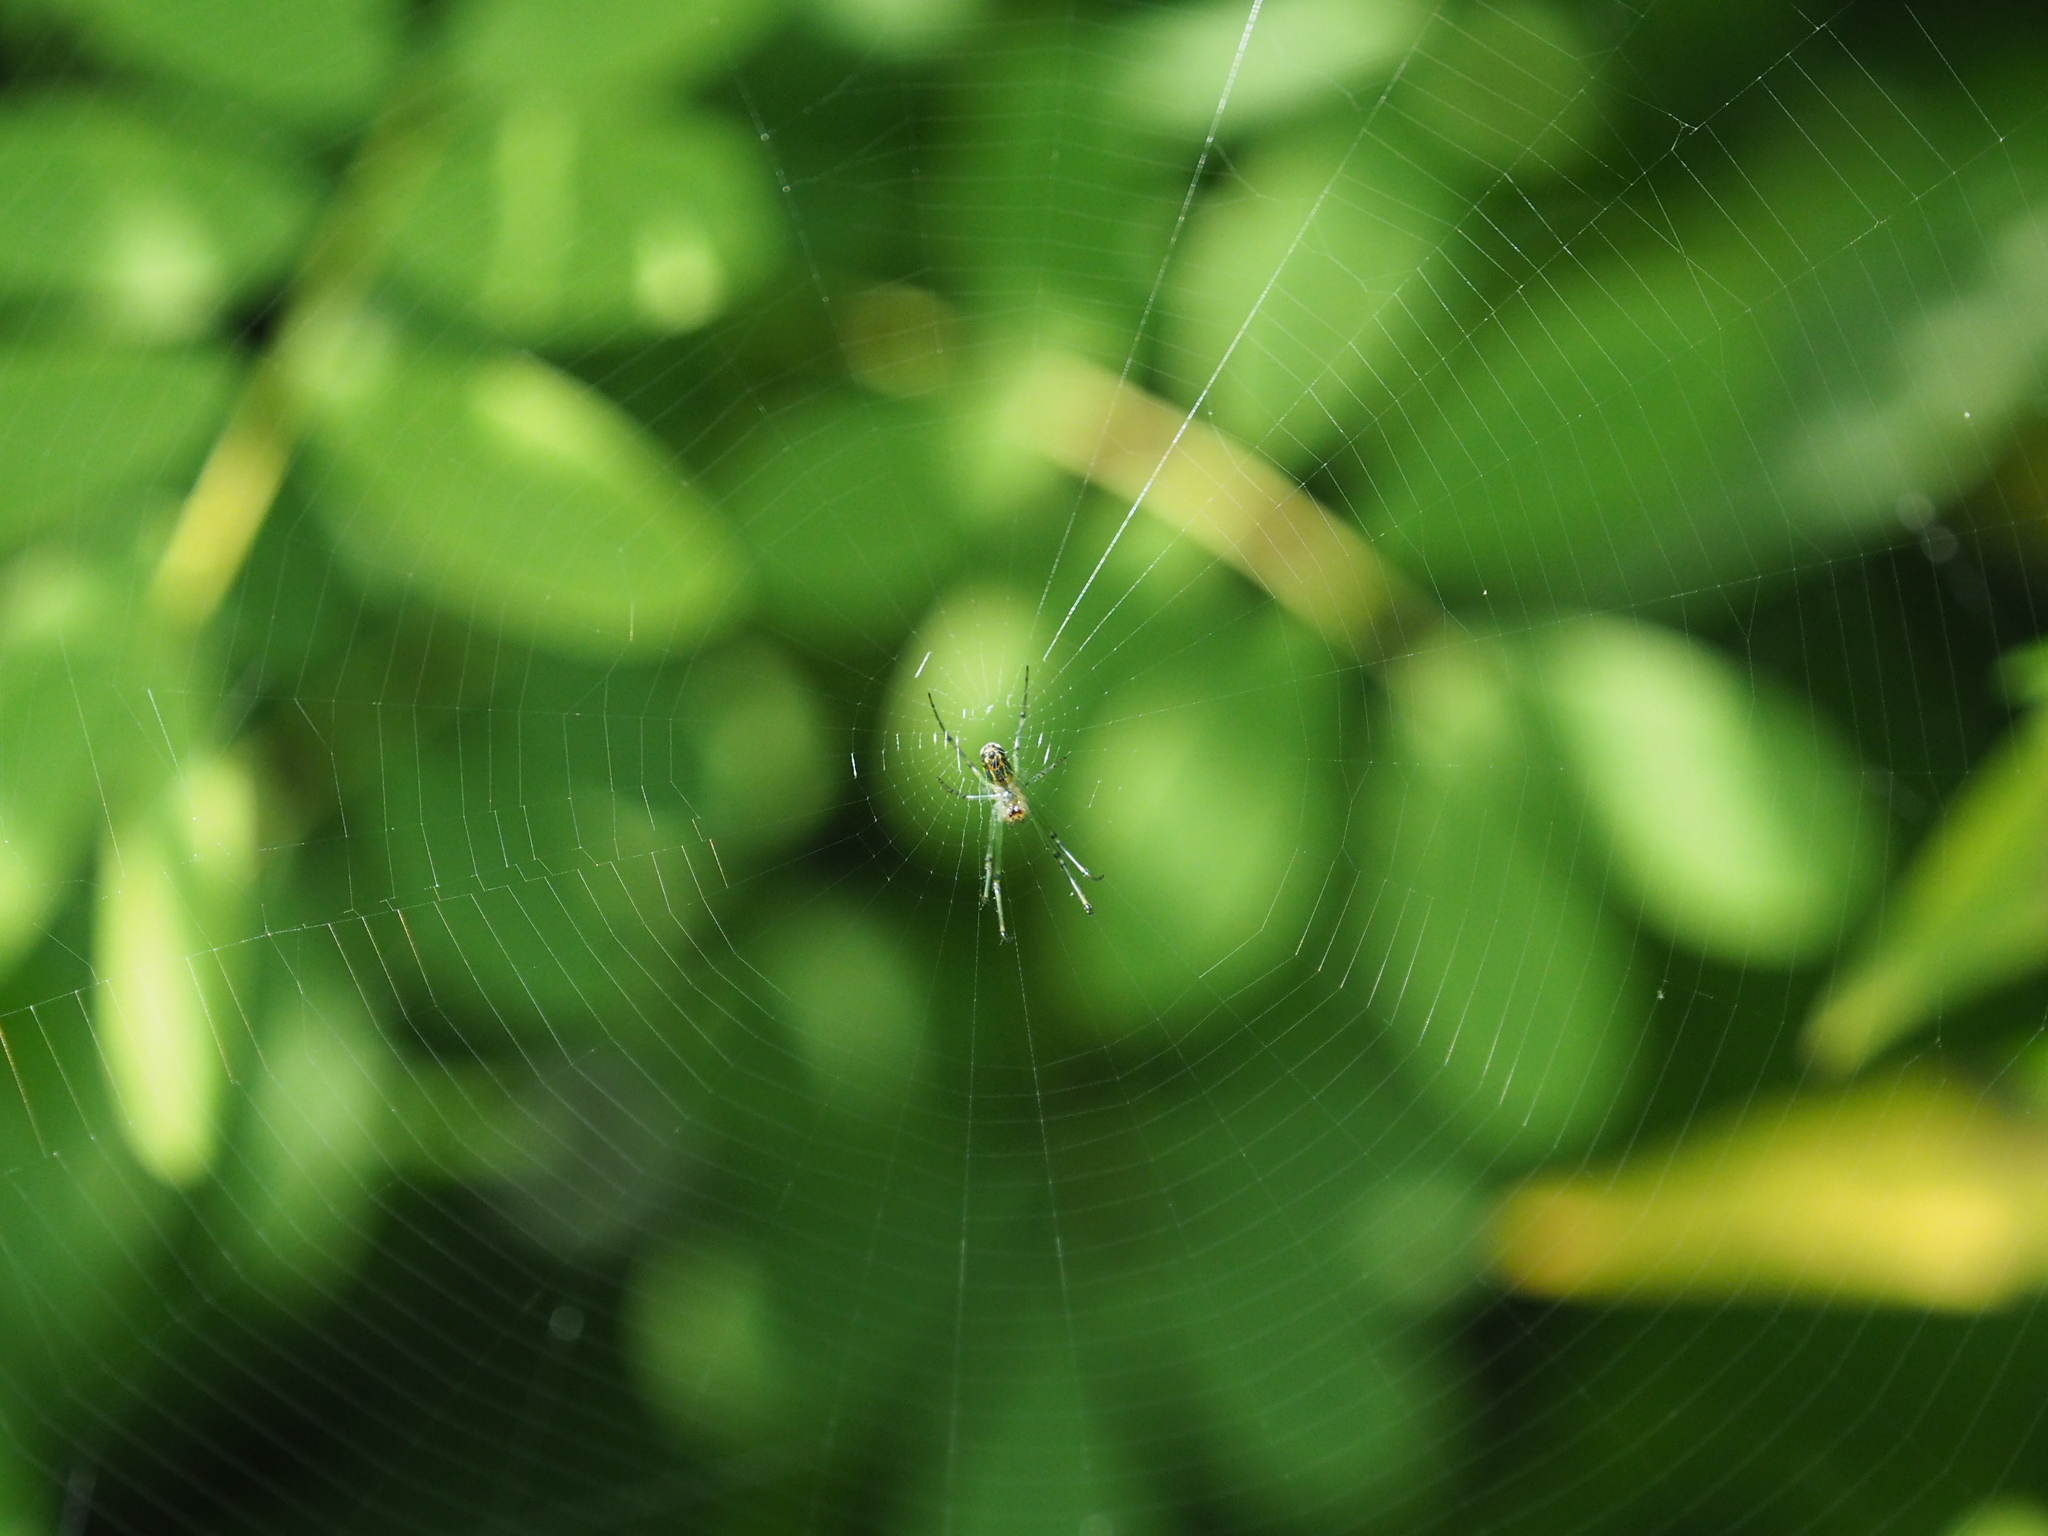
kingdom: Animalia
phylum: Arthropoda
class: Arachnida
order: Araneae
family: Tetragnathidae
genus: Leucauge
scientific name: Leucauge venusta
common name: Longjawed orb weavers
